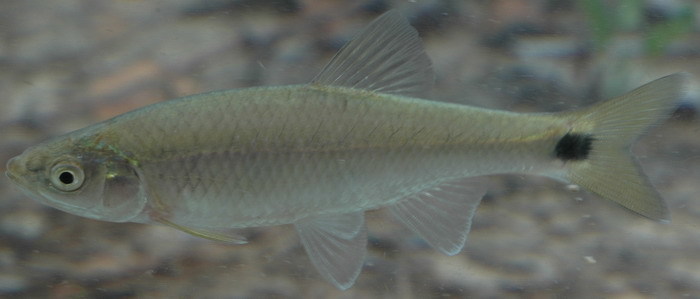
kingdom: Animalia
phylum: Chordata
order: Cypriniformes
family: Cyprinidae
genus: Cyprinella
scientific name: Cyprinella venusta
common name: Blacktail shiner
